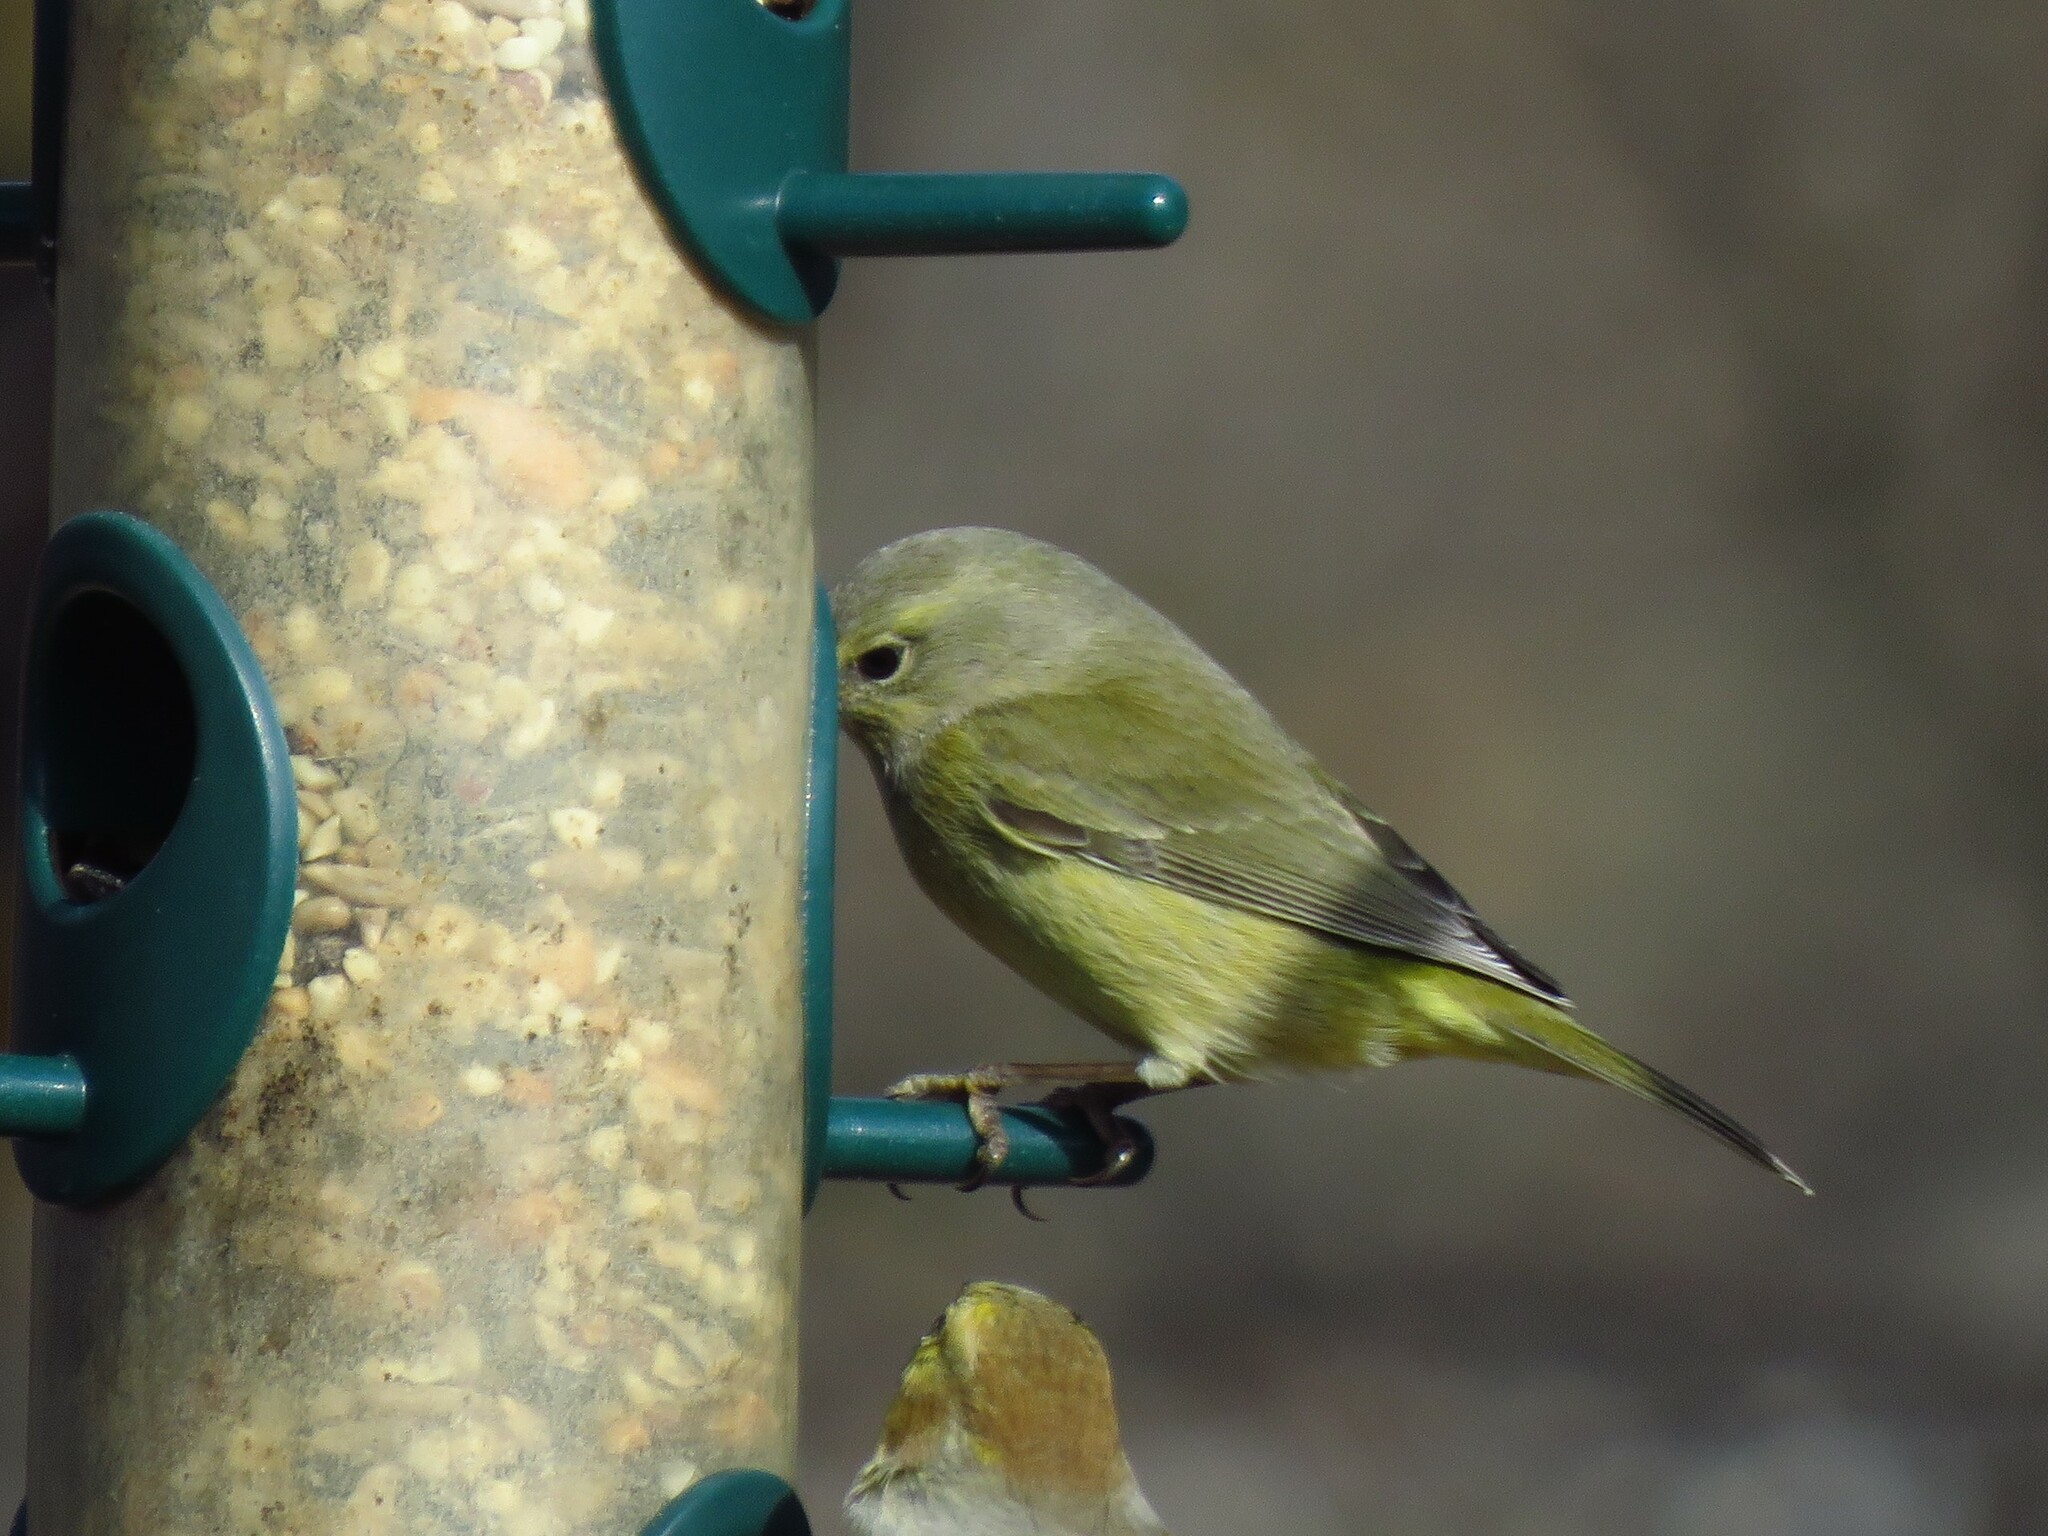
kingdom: Animalia
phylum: Chordata
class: Aves
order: Passeriformes
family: Parulidae
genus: Leiothlypis
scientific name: Leiothlypis celata
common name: Orange-crowned warbler
